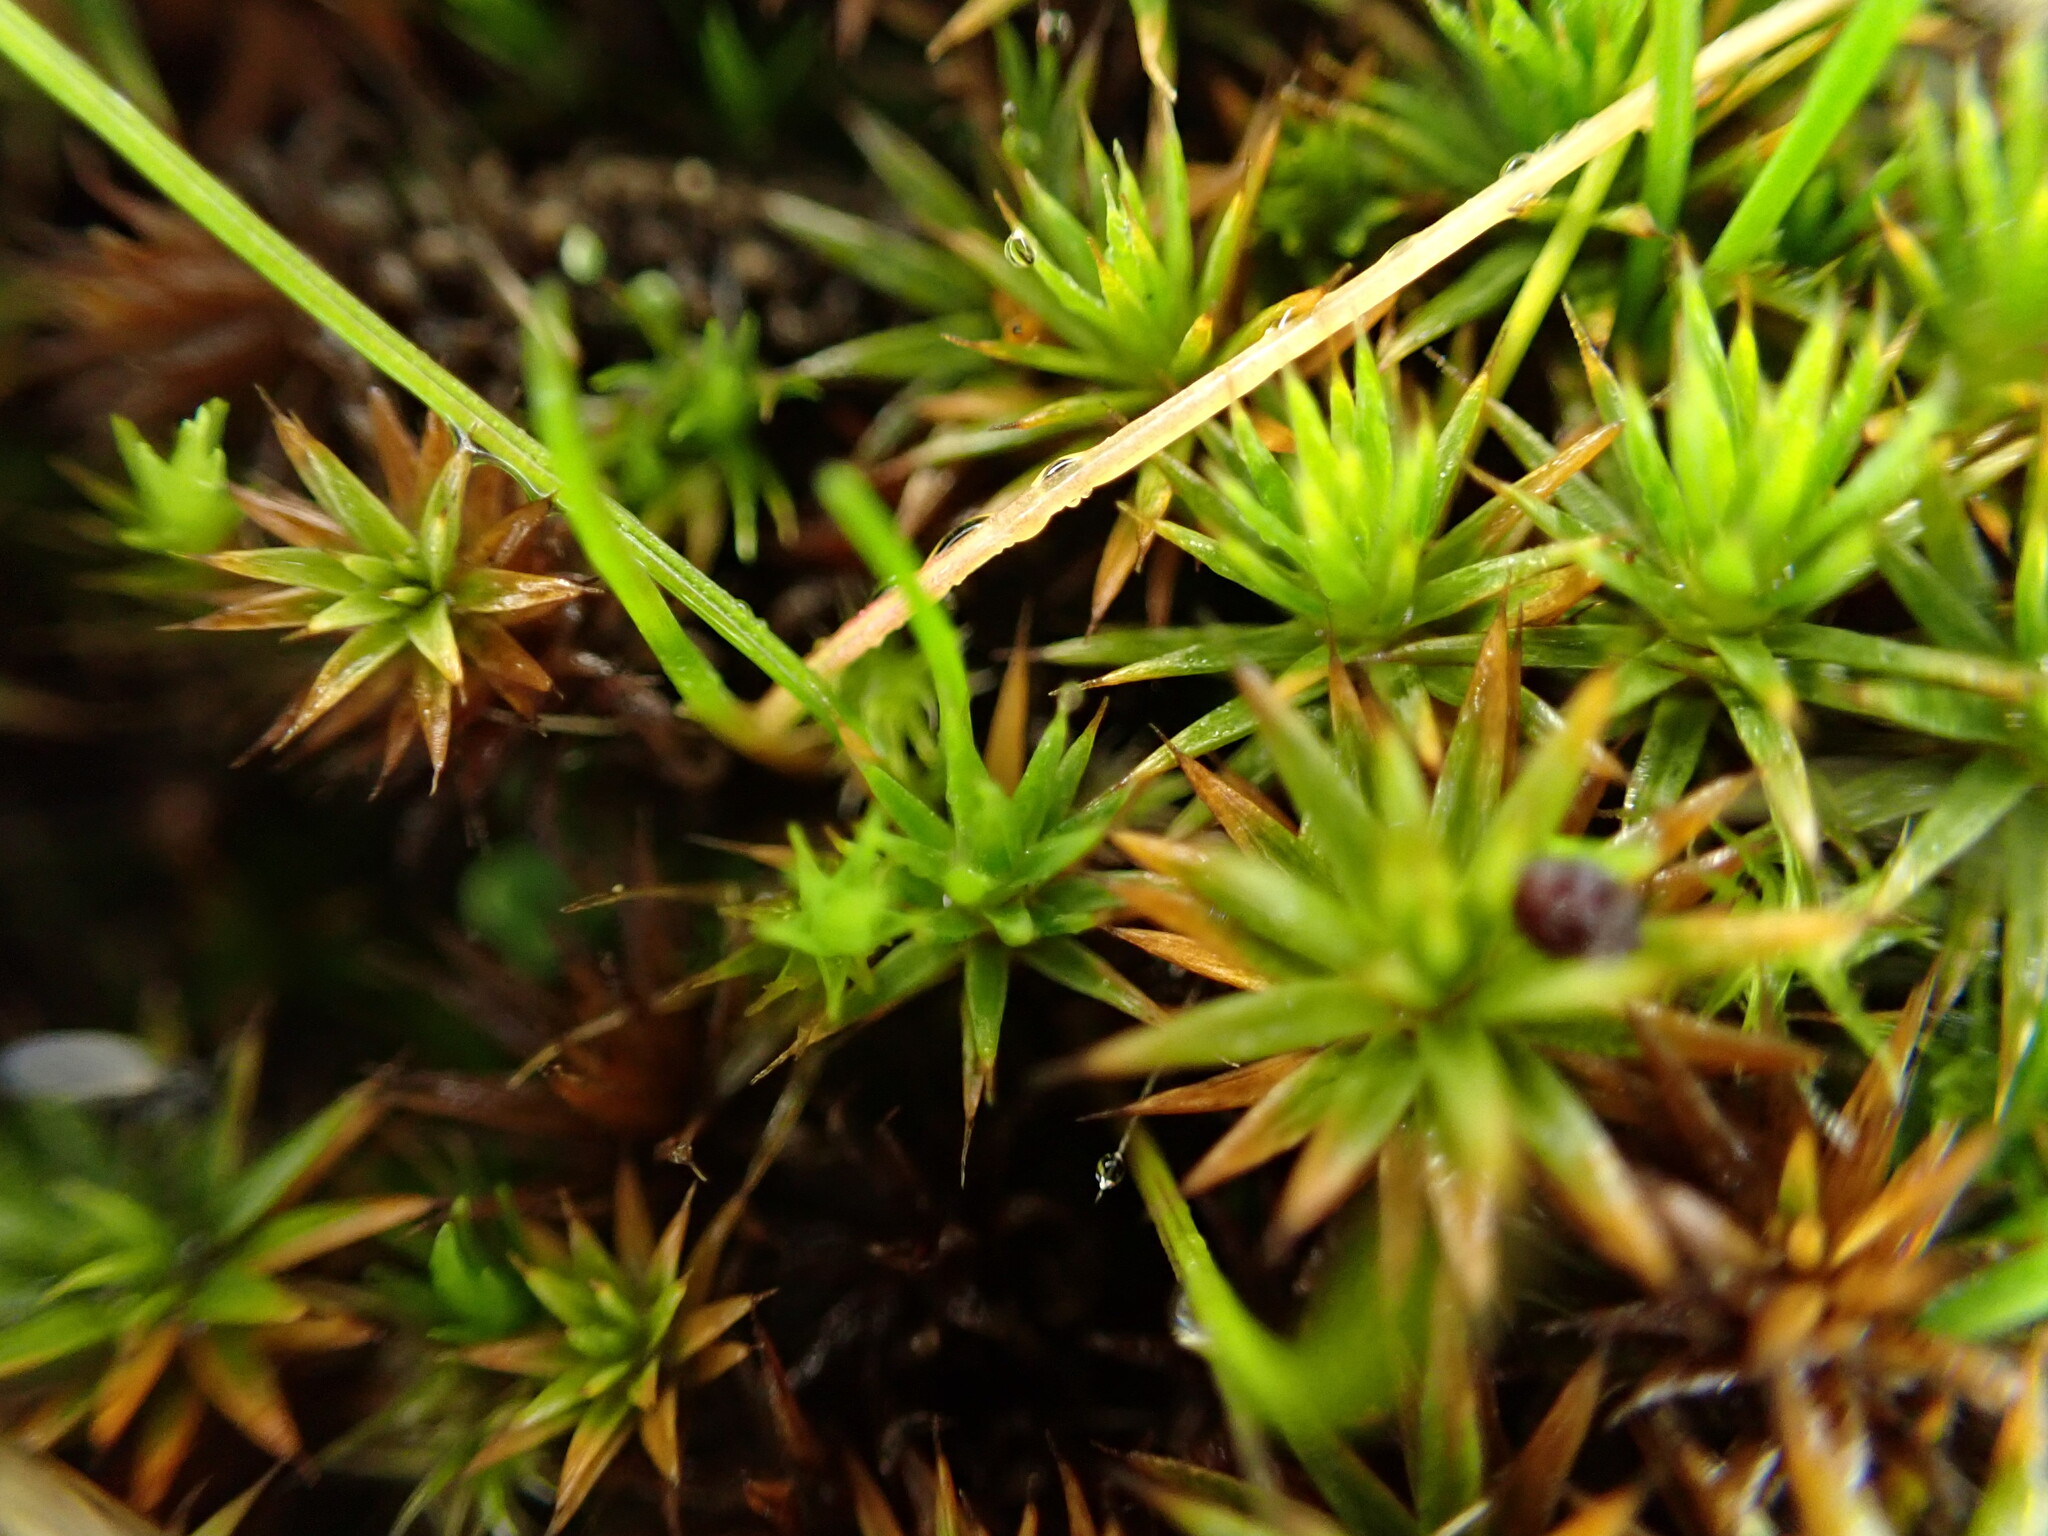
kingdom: Plantae
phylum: Bryophyta
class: Polytrichopsida
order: Polytrichales
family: Polytrichaceae
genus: Polytrichum
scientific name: Polytrichum juniperinum
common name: Juniper haircap moss
